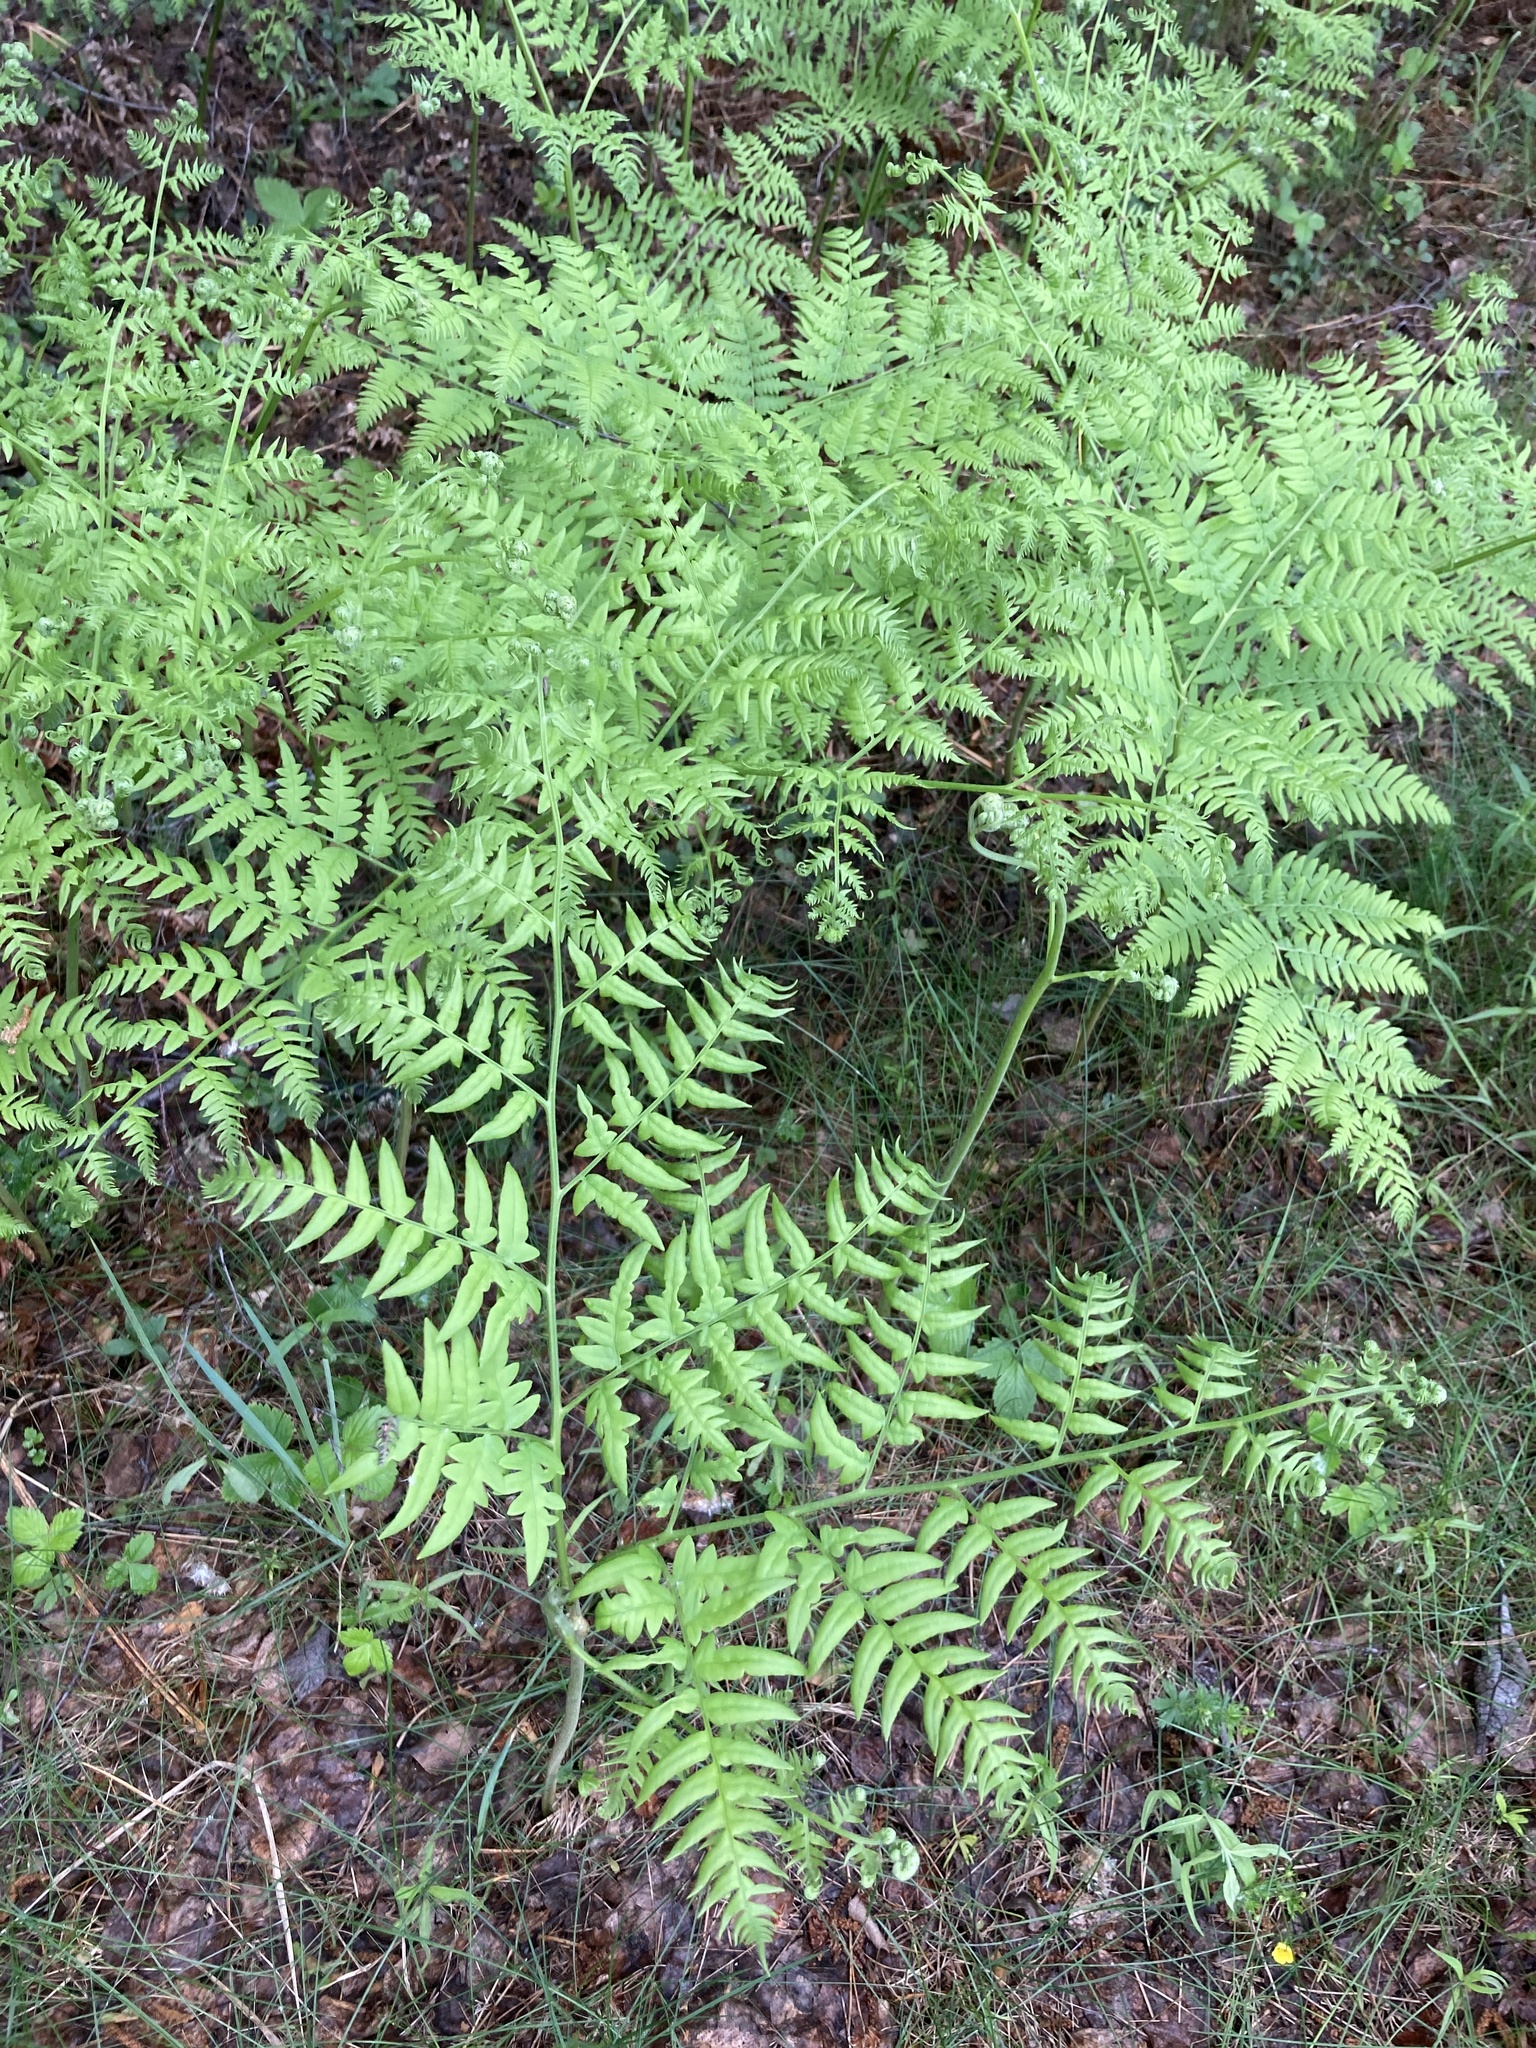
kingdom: Plantae
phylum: Tracheophyta
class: Polypodiopsida
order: Polypodiales
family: Dennstaedtiaceae
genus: Pteridium
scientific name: Pteridium aquilinum
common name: Bracken
